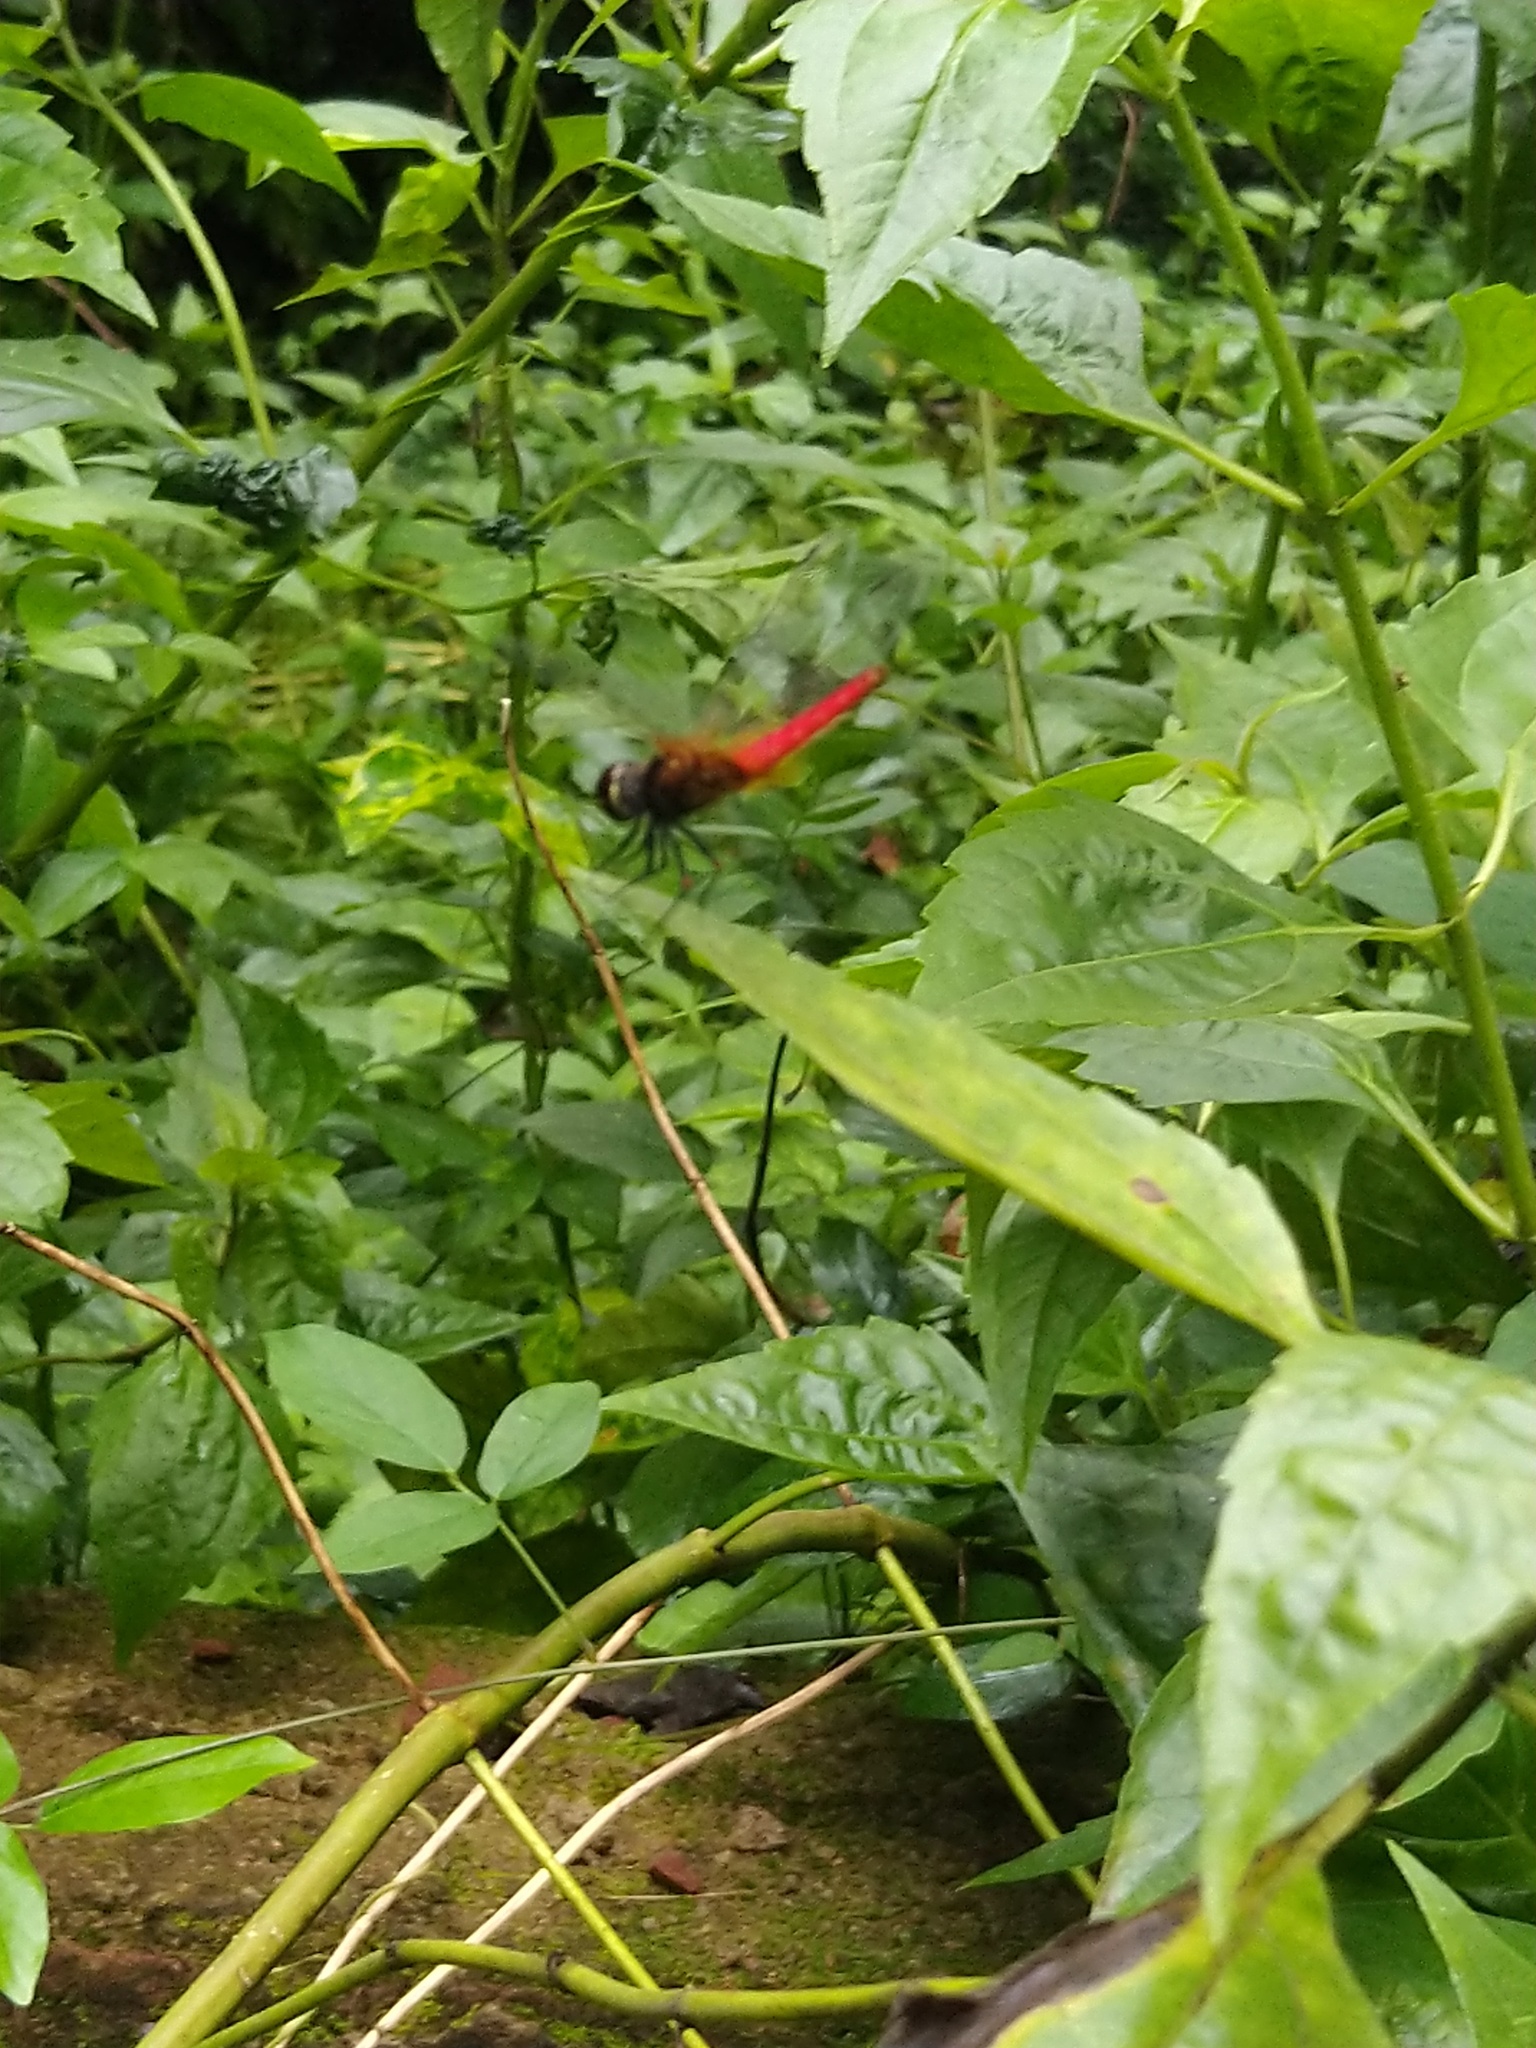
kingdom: Animalia
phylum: Arthropoda
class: Insecta
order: Odonata
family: Libellulidae
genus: Aethriamanta
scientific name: Aethriamanta brevipennis
